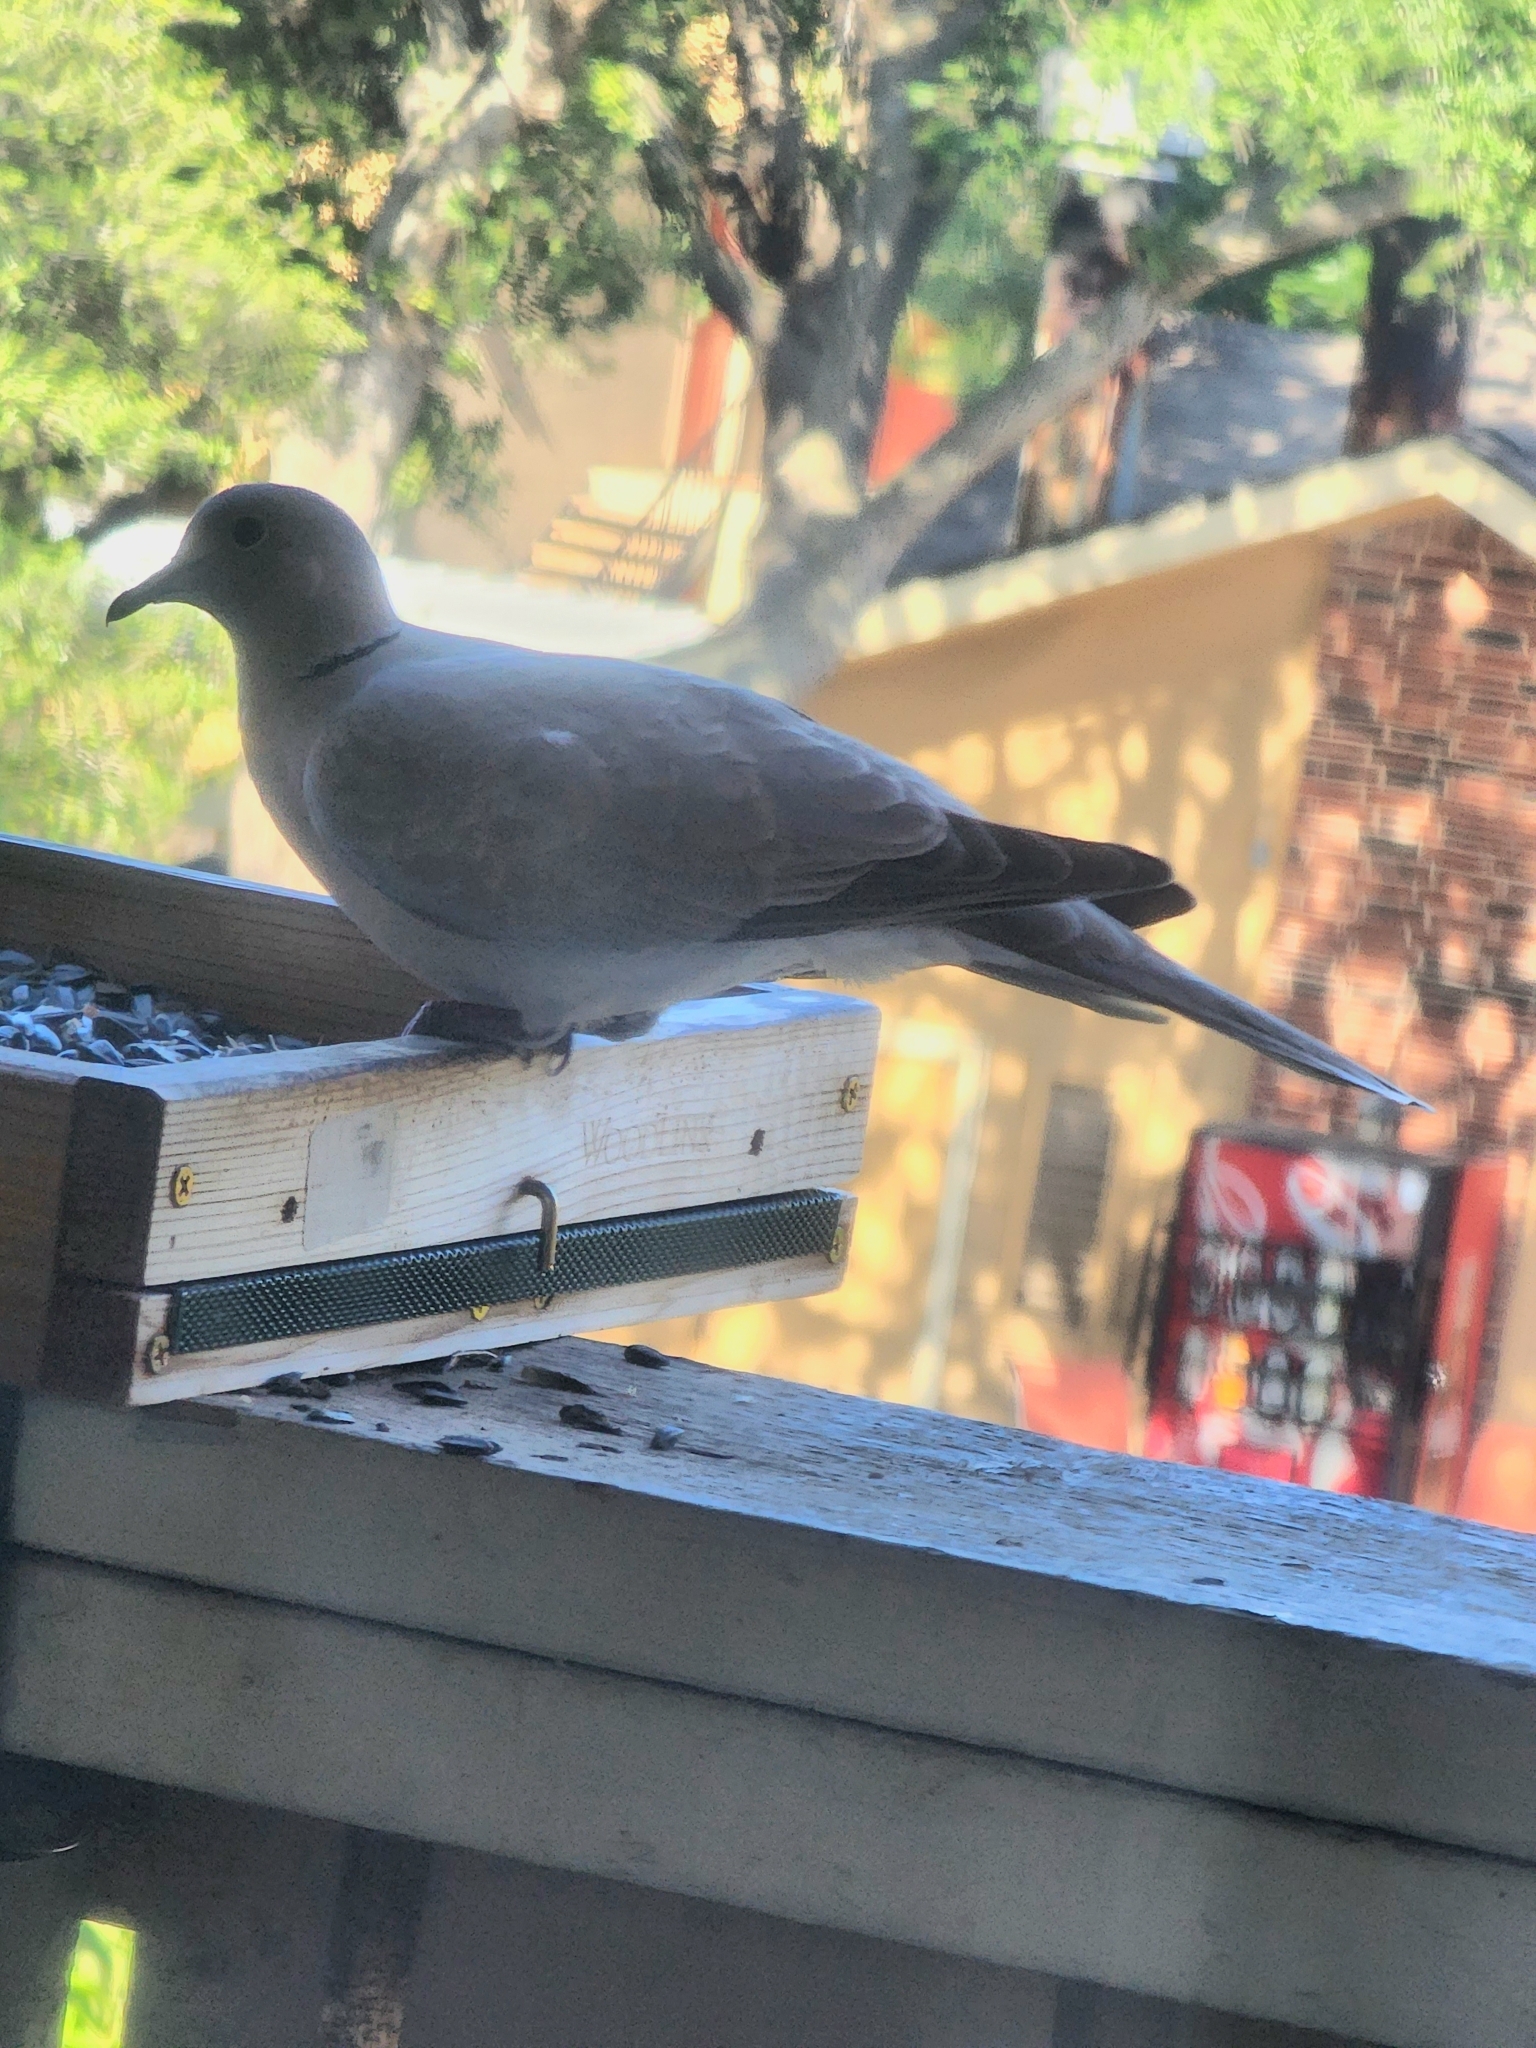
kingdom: Animalia
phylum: Chordata
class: Aves
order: Columbiformes
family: Columbidae
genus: Streptopelia
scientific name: Streptopelia decaocto
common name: Eurasian collared dove
